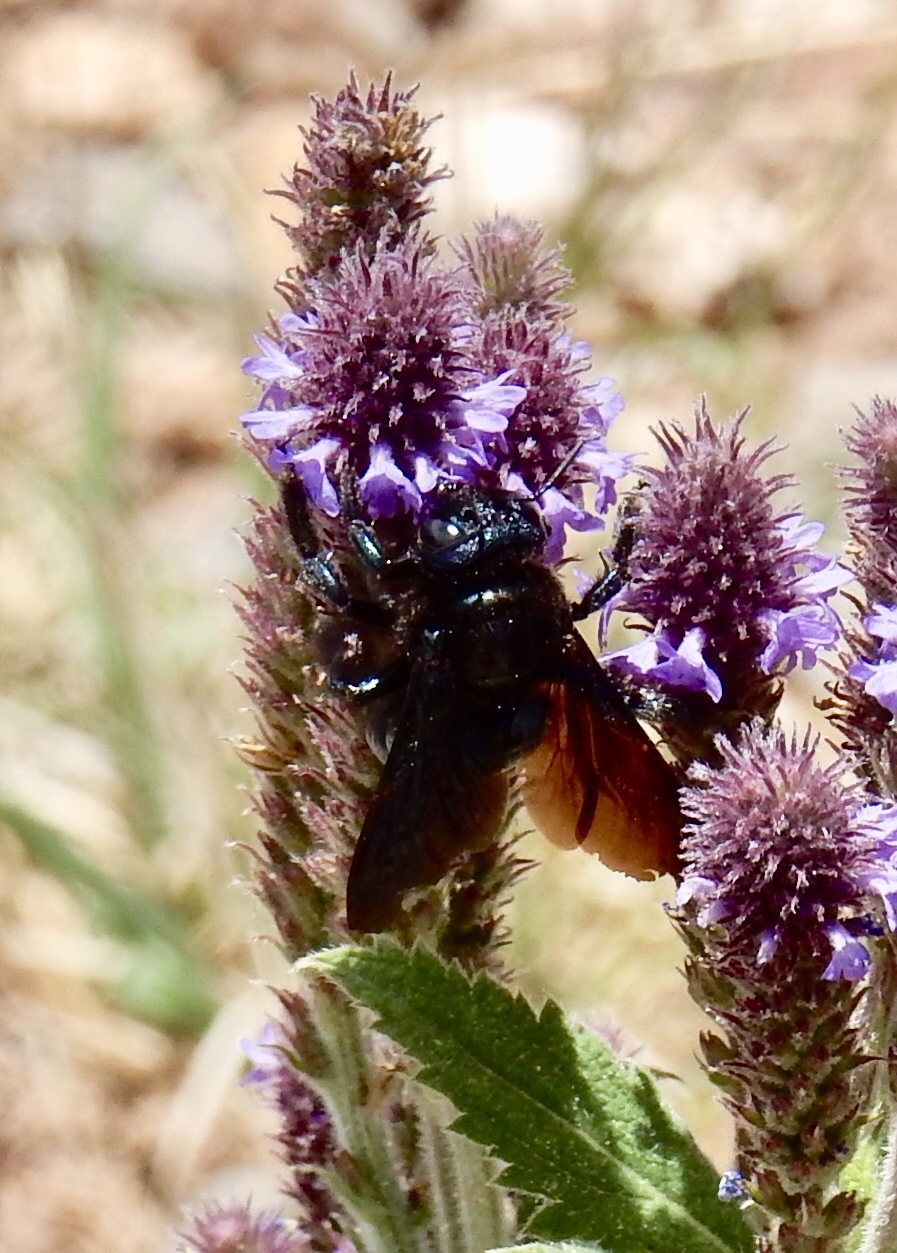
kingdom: Animalia
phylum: Arthropoda
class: Insecta
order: Hymenoptera
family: Apidae
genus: Xylocopa
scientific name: Xylocopa californica
